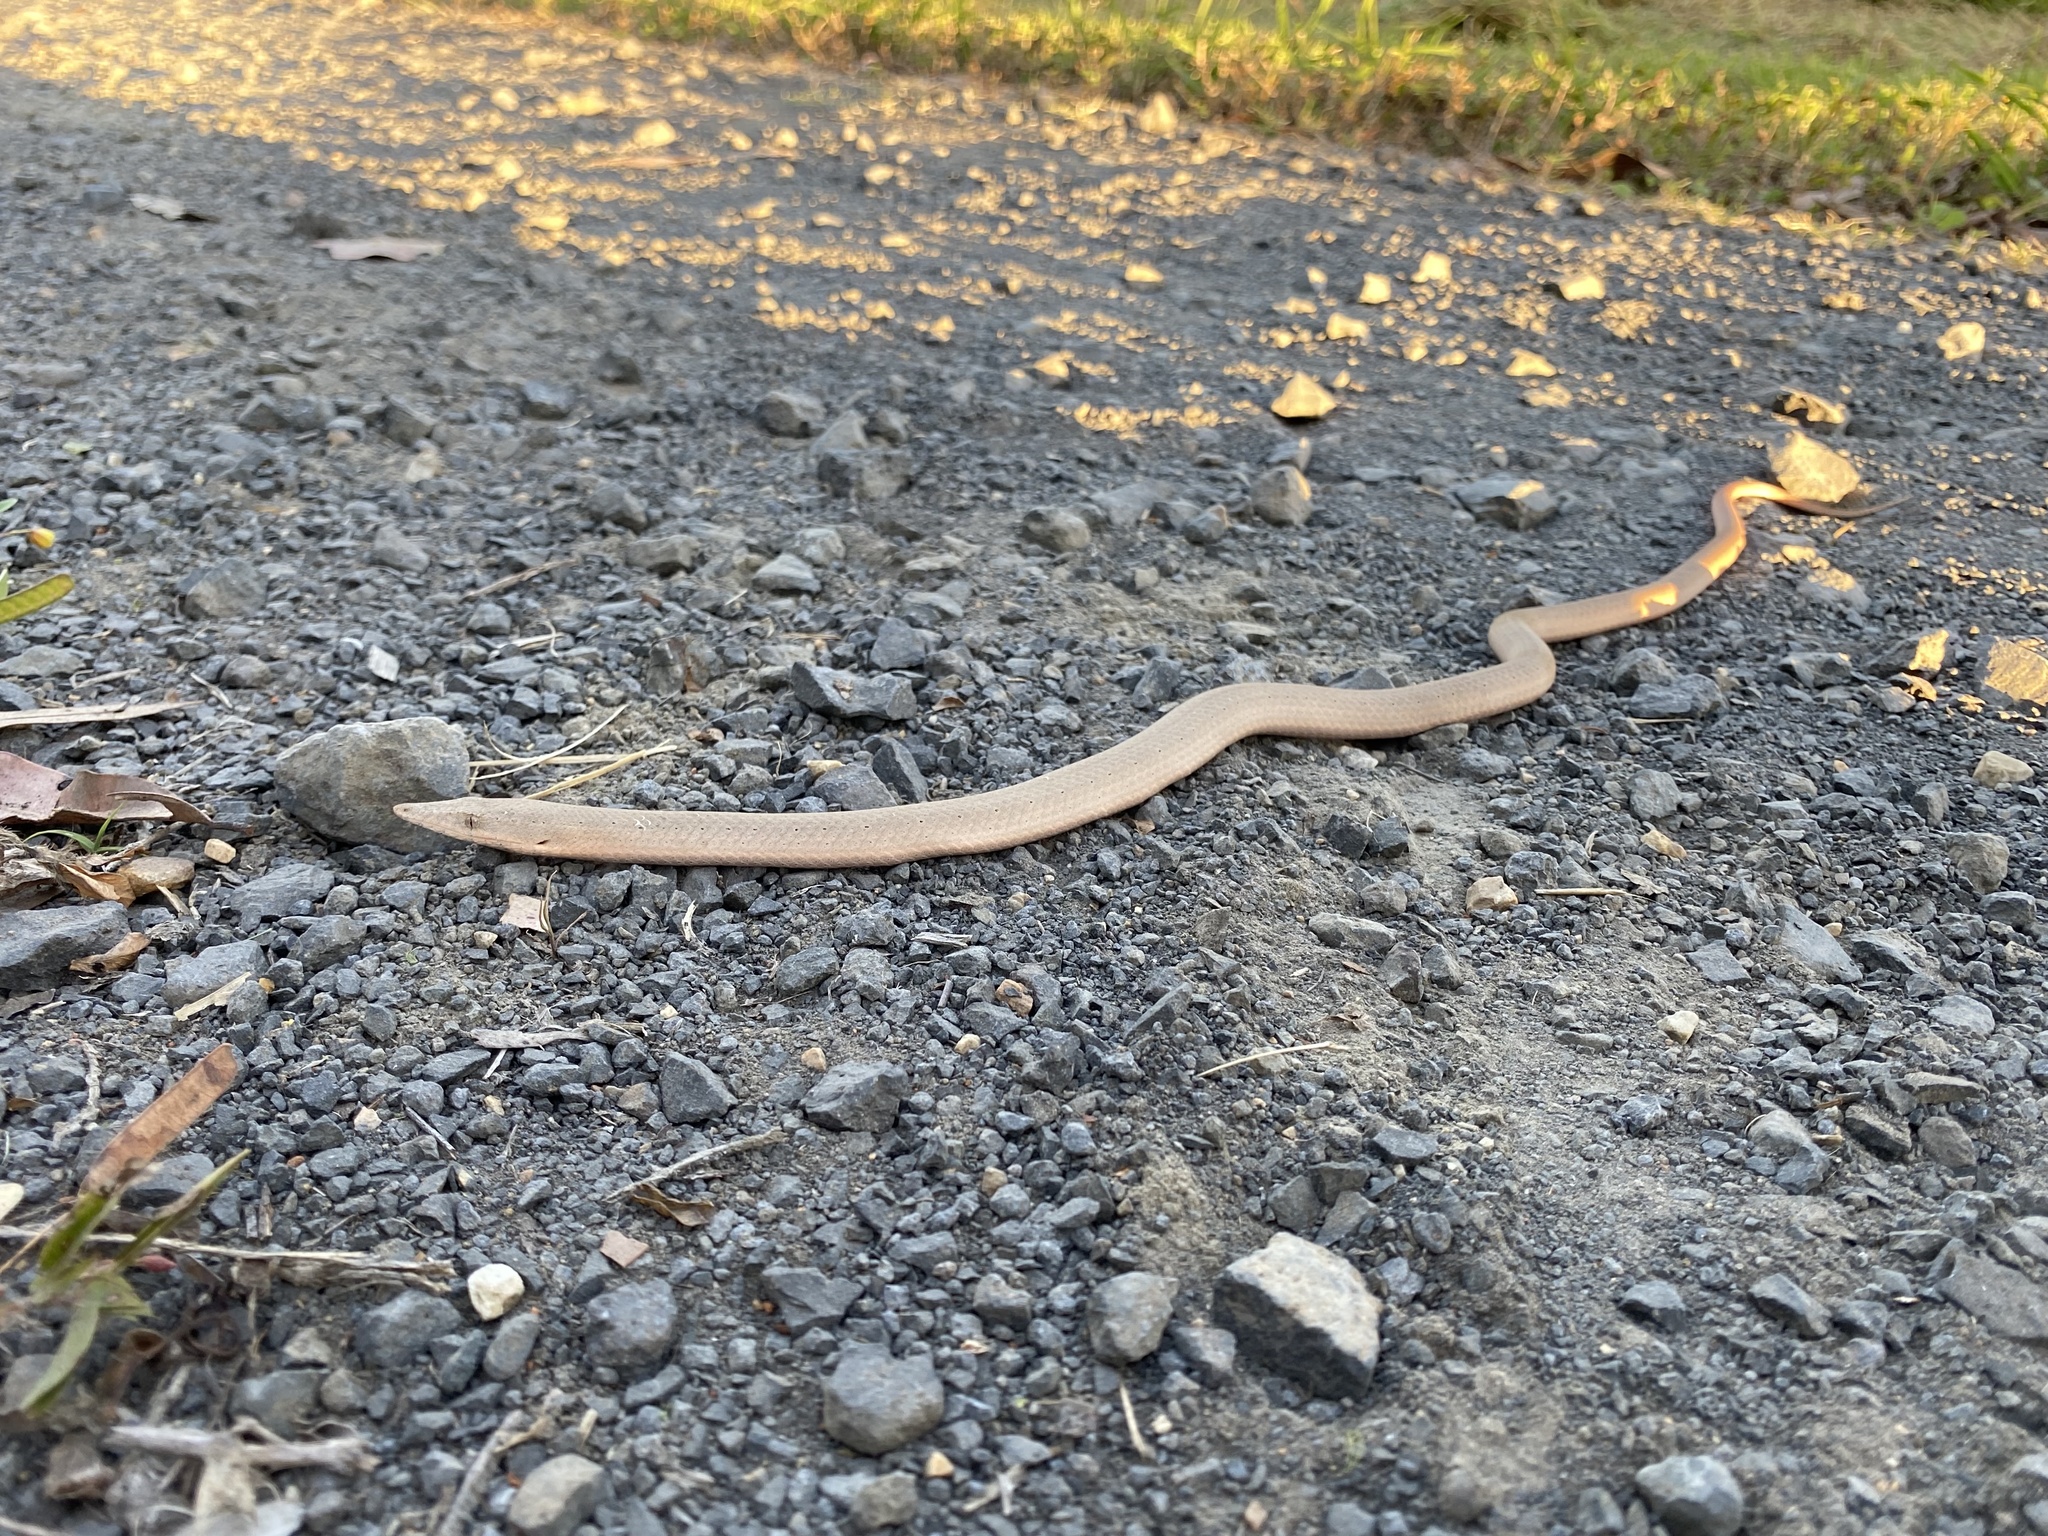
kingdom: Animalia
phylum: Chordata
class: Squamata
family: Pygopodidae
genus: Lialis
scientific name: Lialis burtonis
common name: Burton's legless lizard
